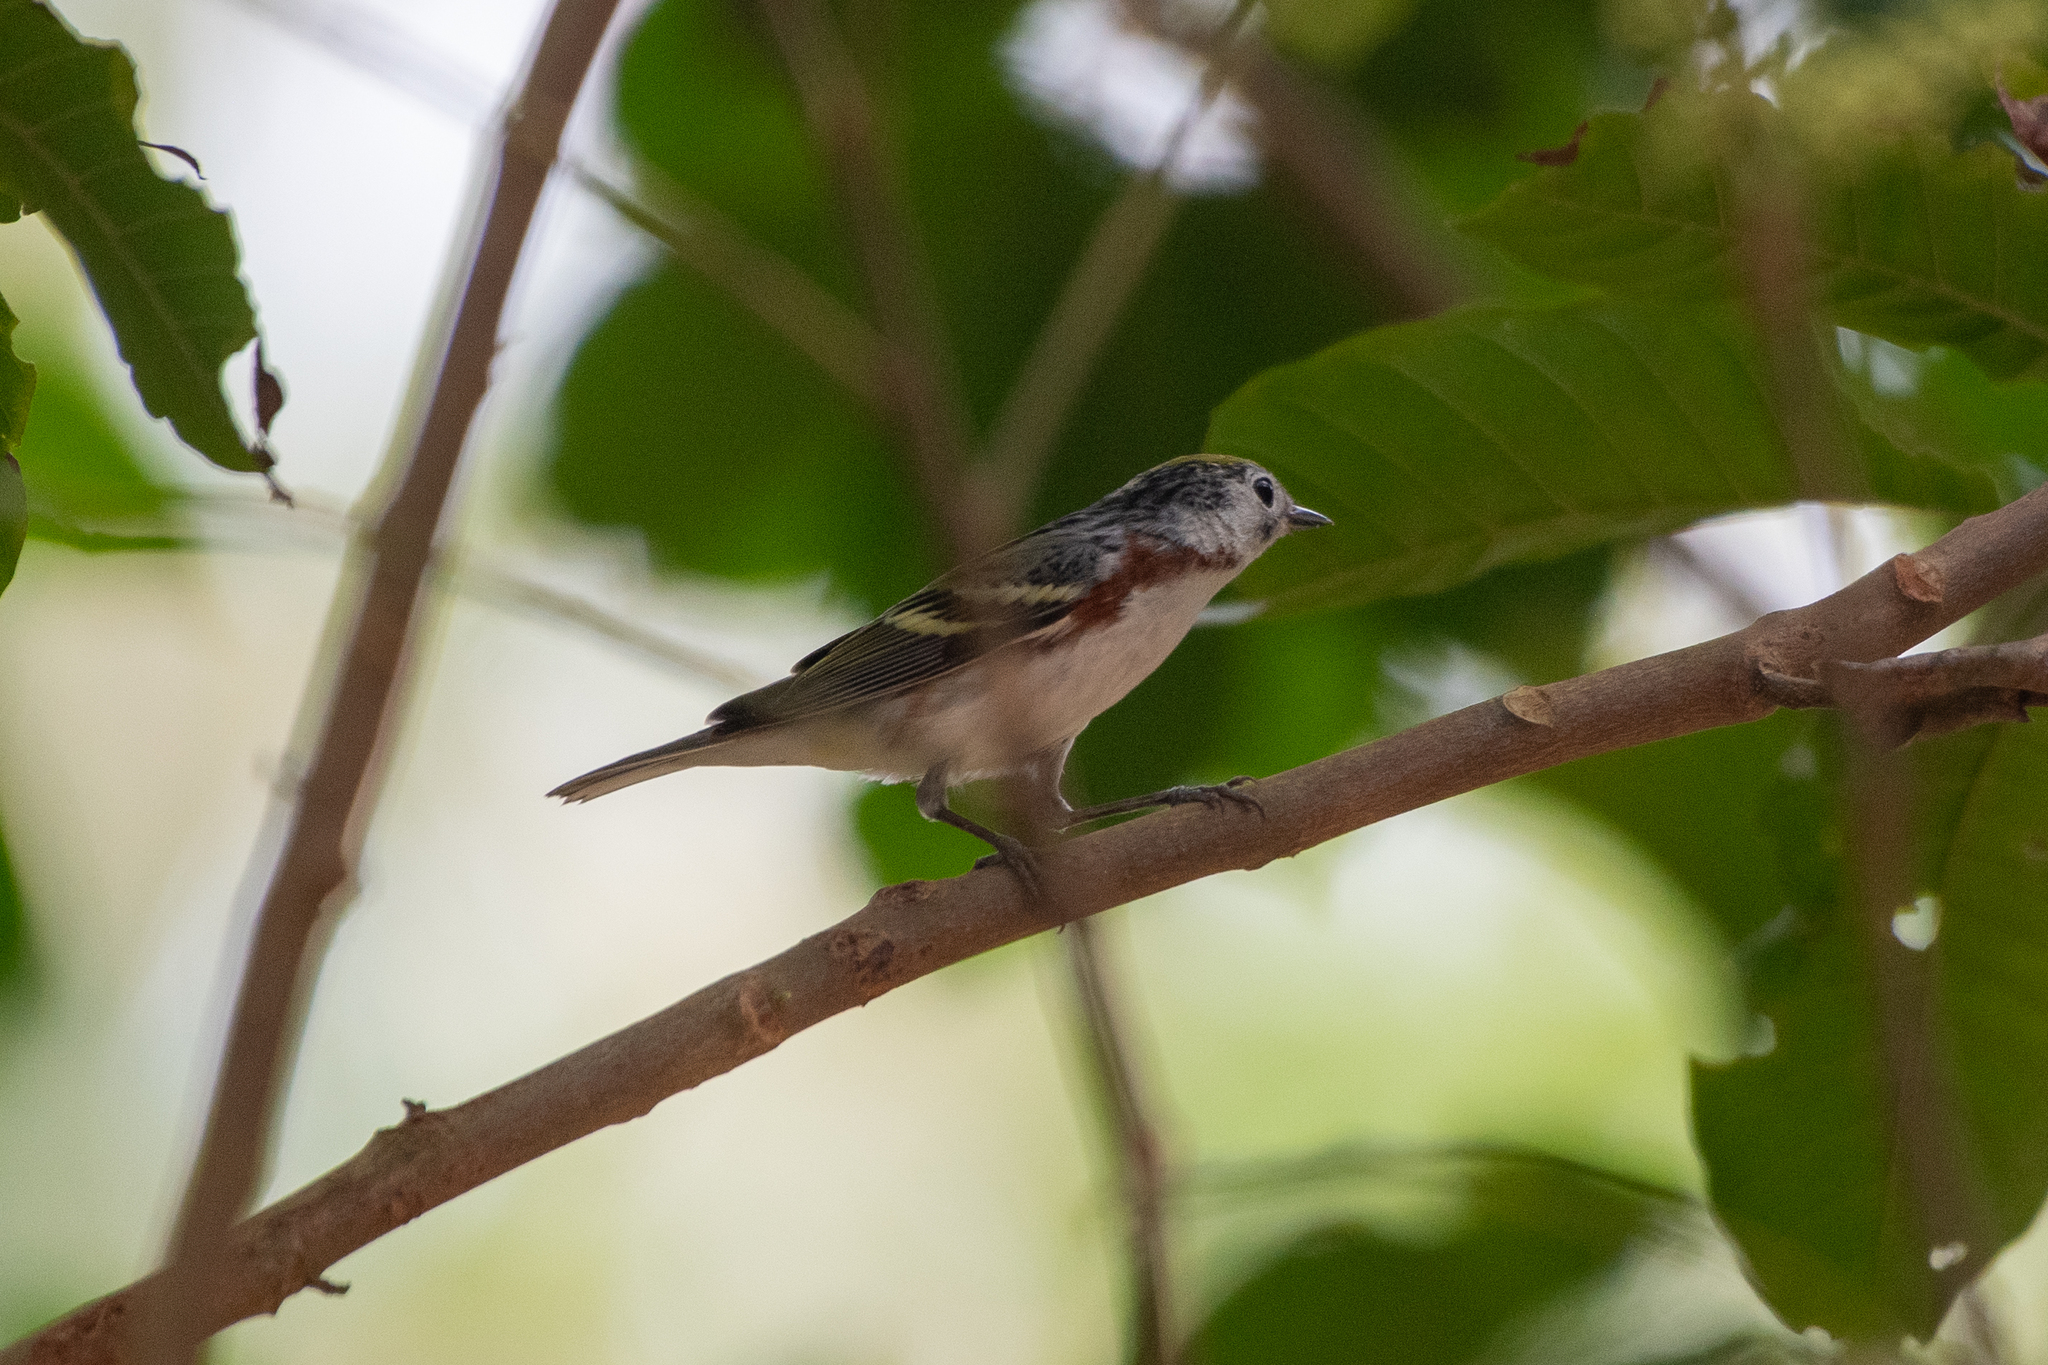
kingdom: Animalia
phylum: Chordata
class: Aves
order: Passeriformes
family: Parulidae
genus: Setophaga
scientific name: Setophaga pensylvanica
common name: Chestnut-sided warbler
